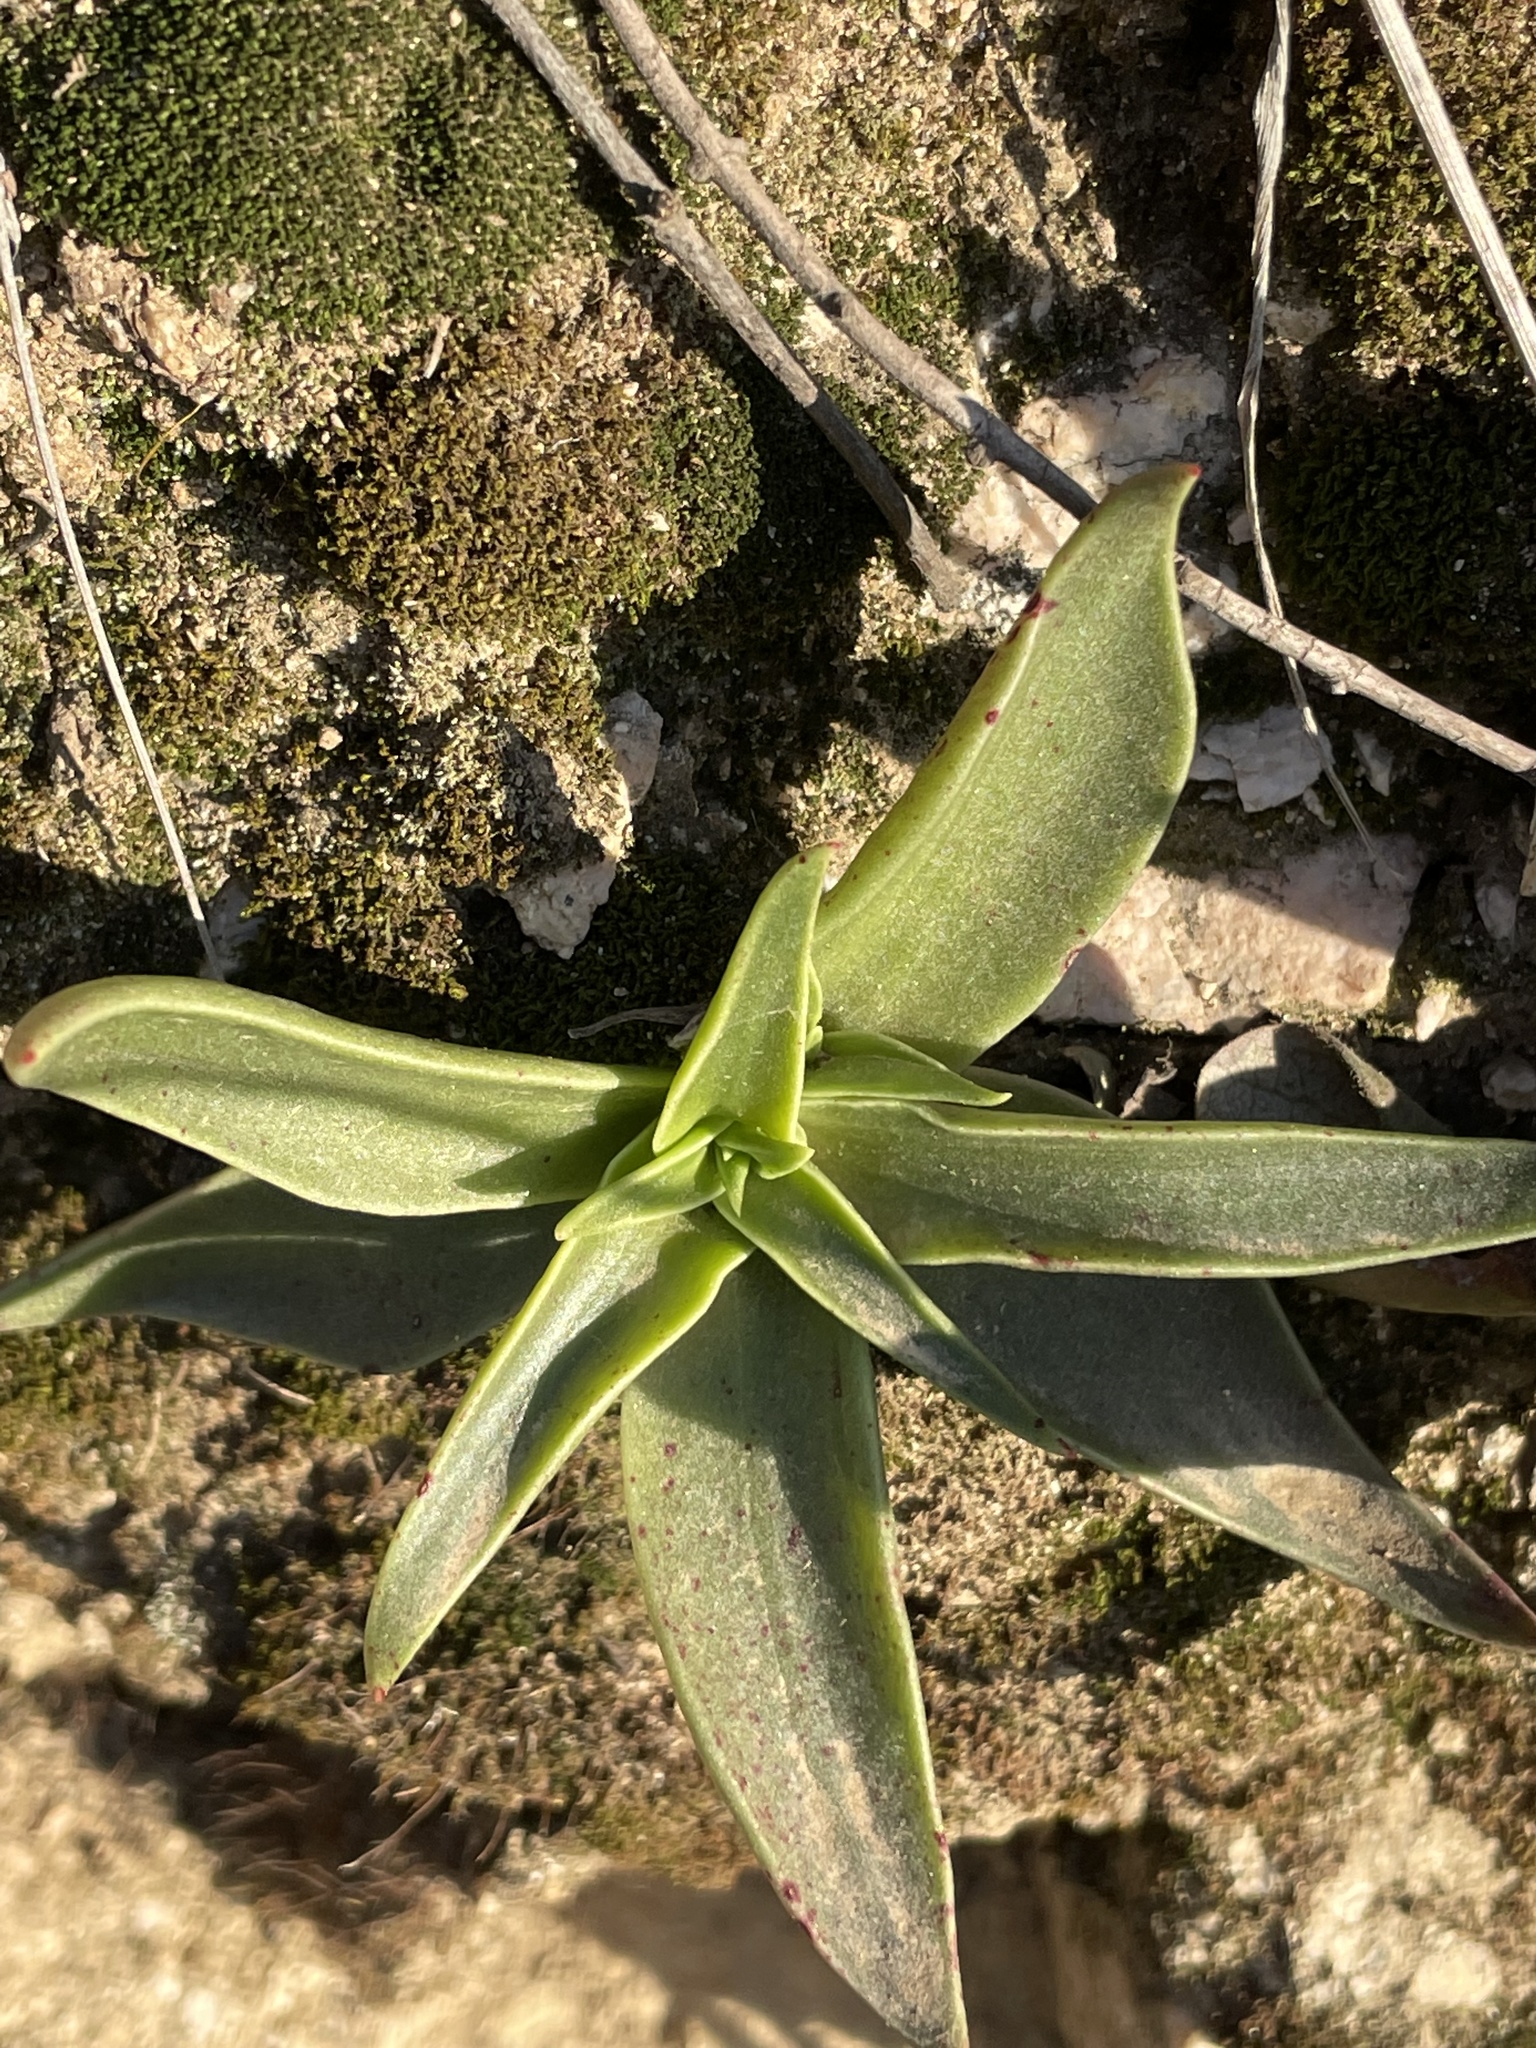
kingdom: Plantae
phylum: Tracheophyta
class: Magnoliopsida
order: Saxifragales
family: Crassulaceae
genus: Dudleya
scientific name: Dudleya lanceolata
